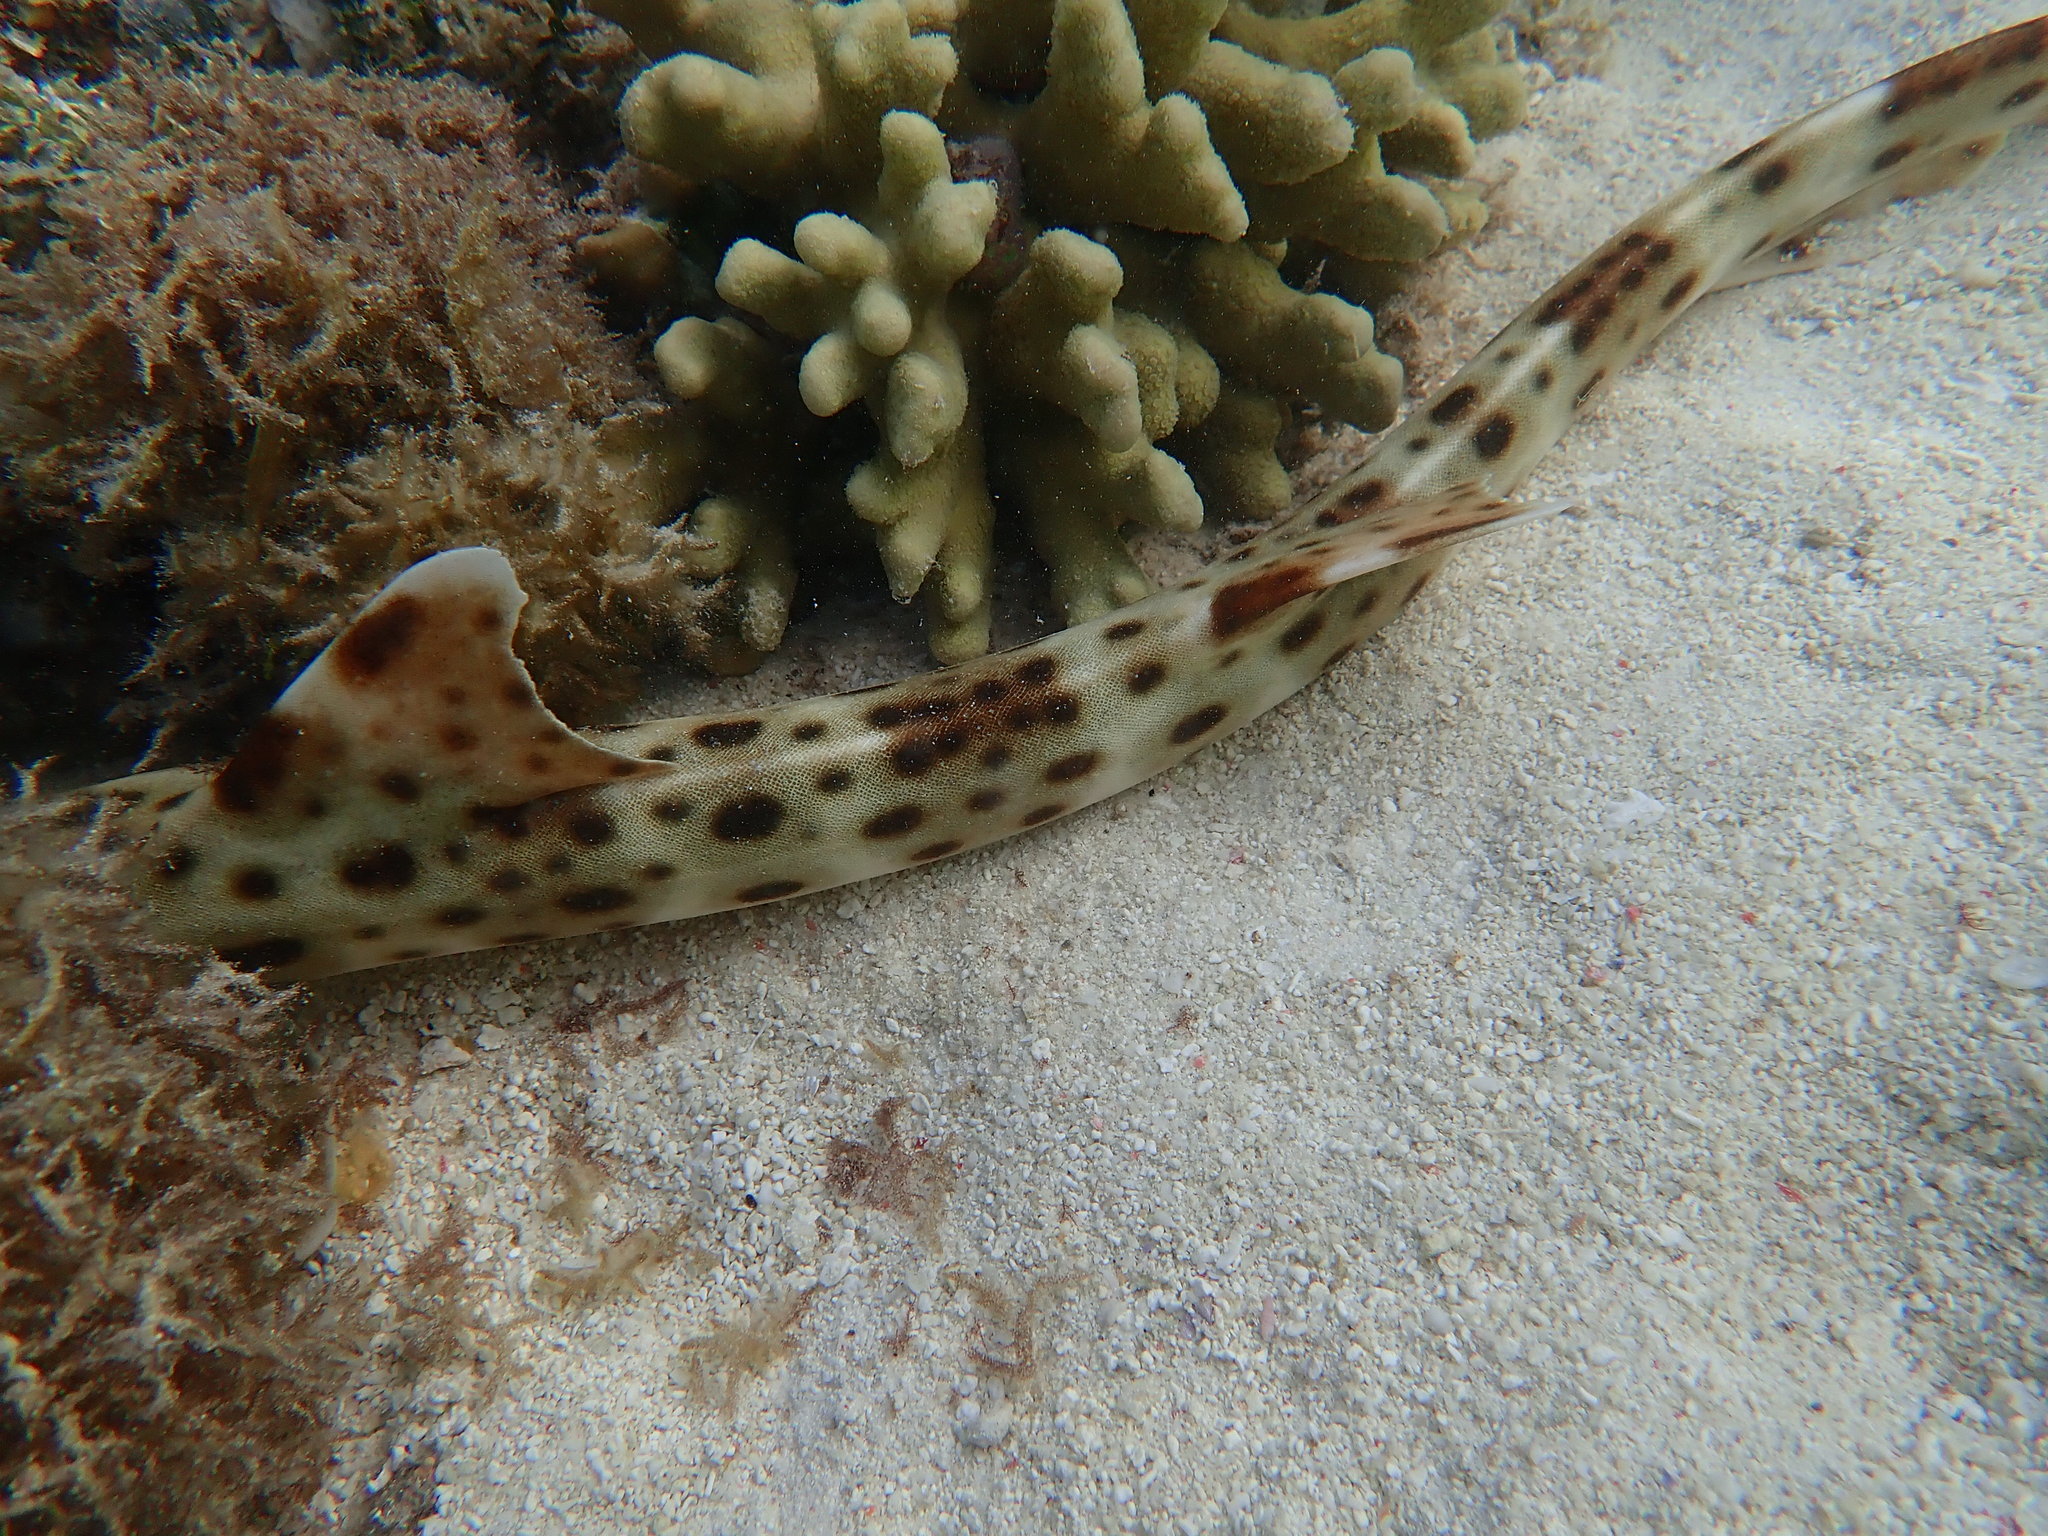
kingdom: Animalia
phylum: Chordata
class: Elasmobranchii
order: Orectolobiformes
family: Hemiscylliidae
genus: Hemiscyllium
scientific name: Hemiscyllium ocellatum
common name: Epaulette shark
